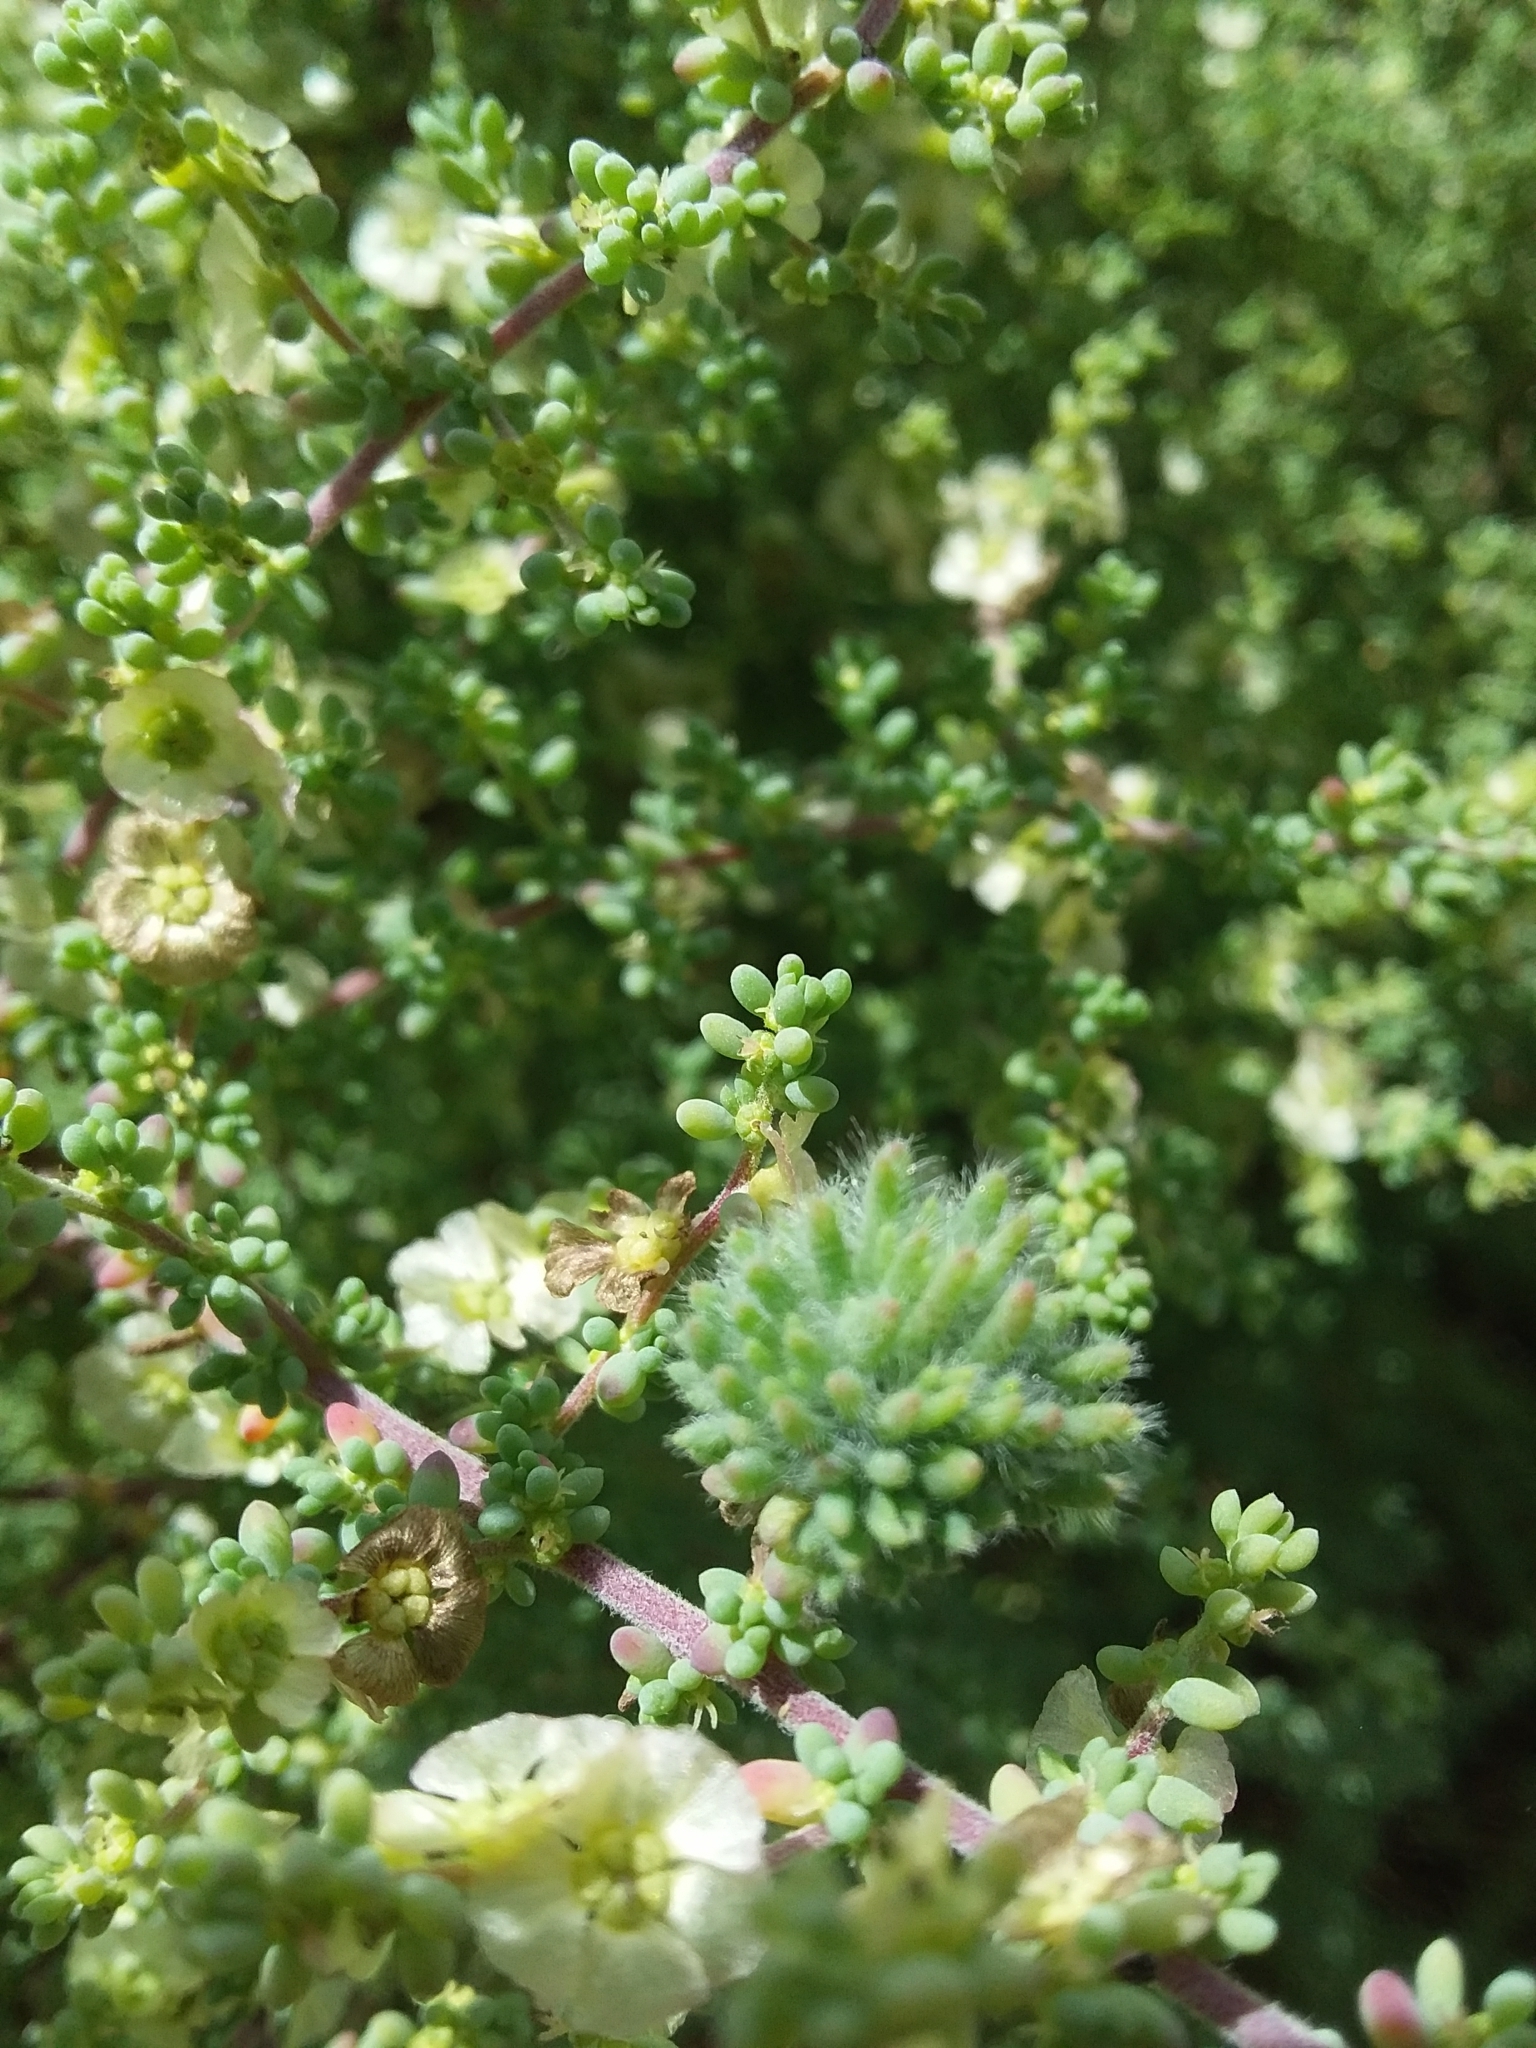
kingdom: Animalia
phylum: Arthropoda
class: Insecta
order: Diptera
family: Cecidomyiidae
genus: Dactylasioptera
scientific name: Dactylasioptera milnae
